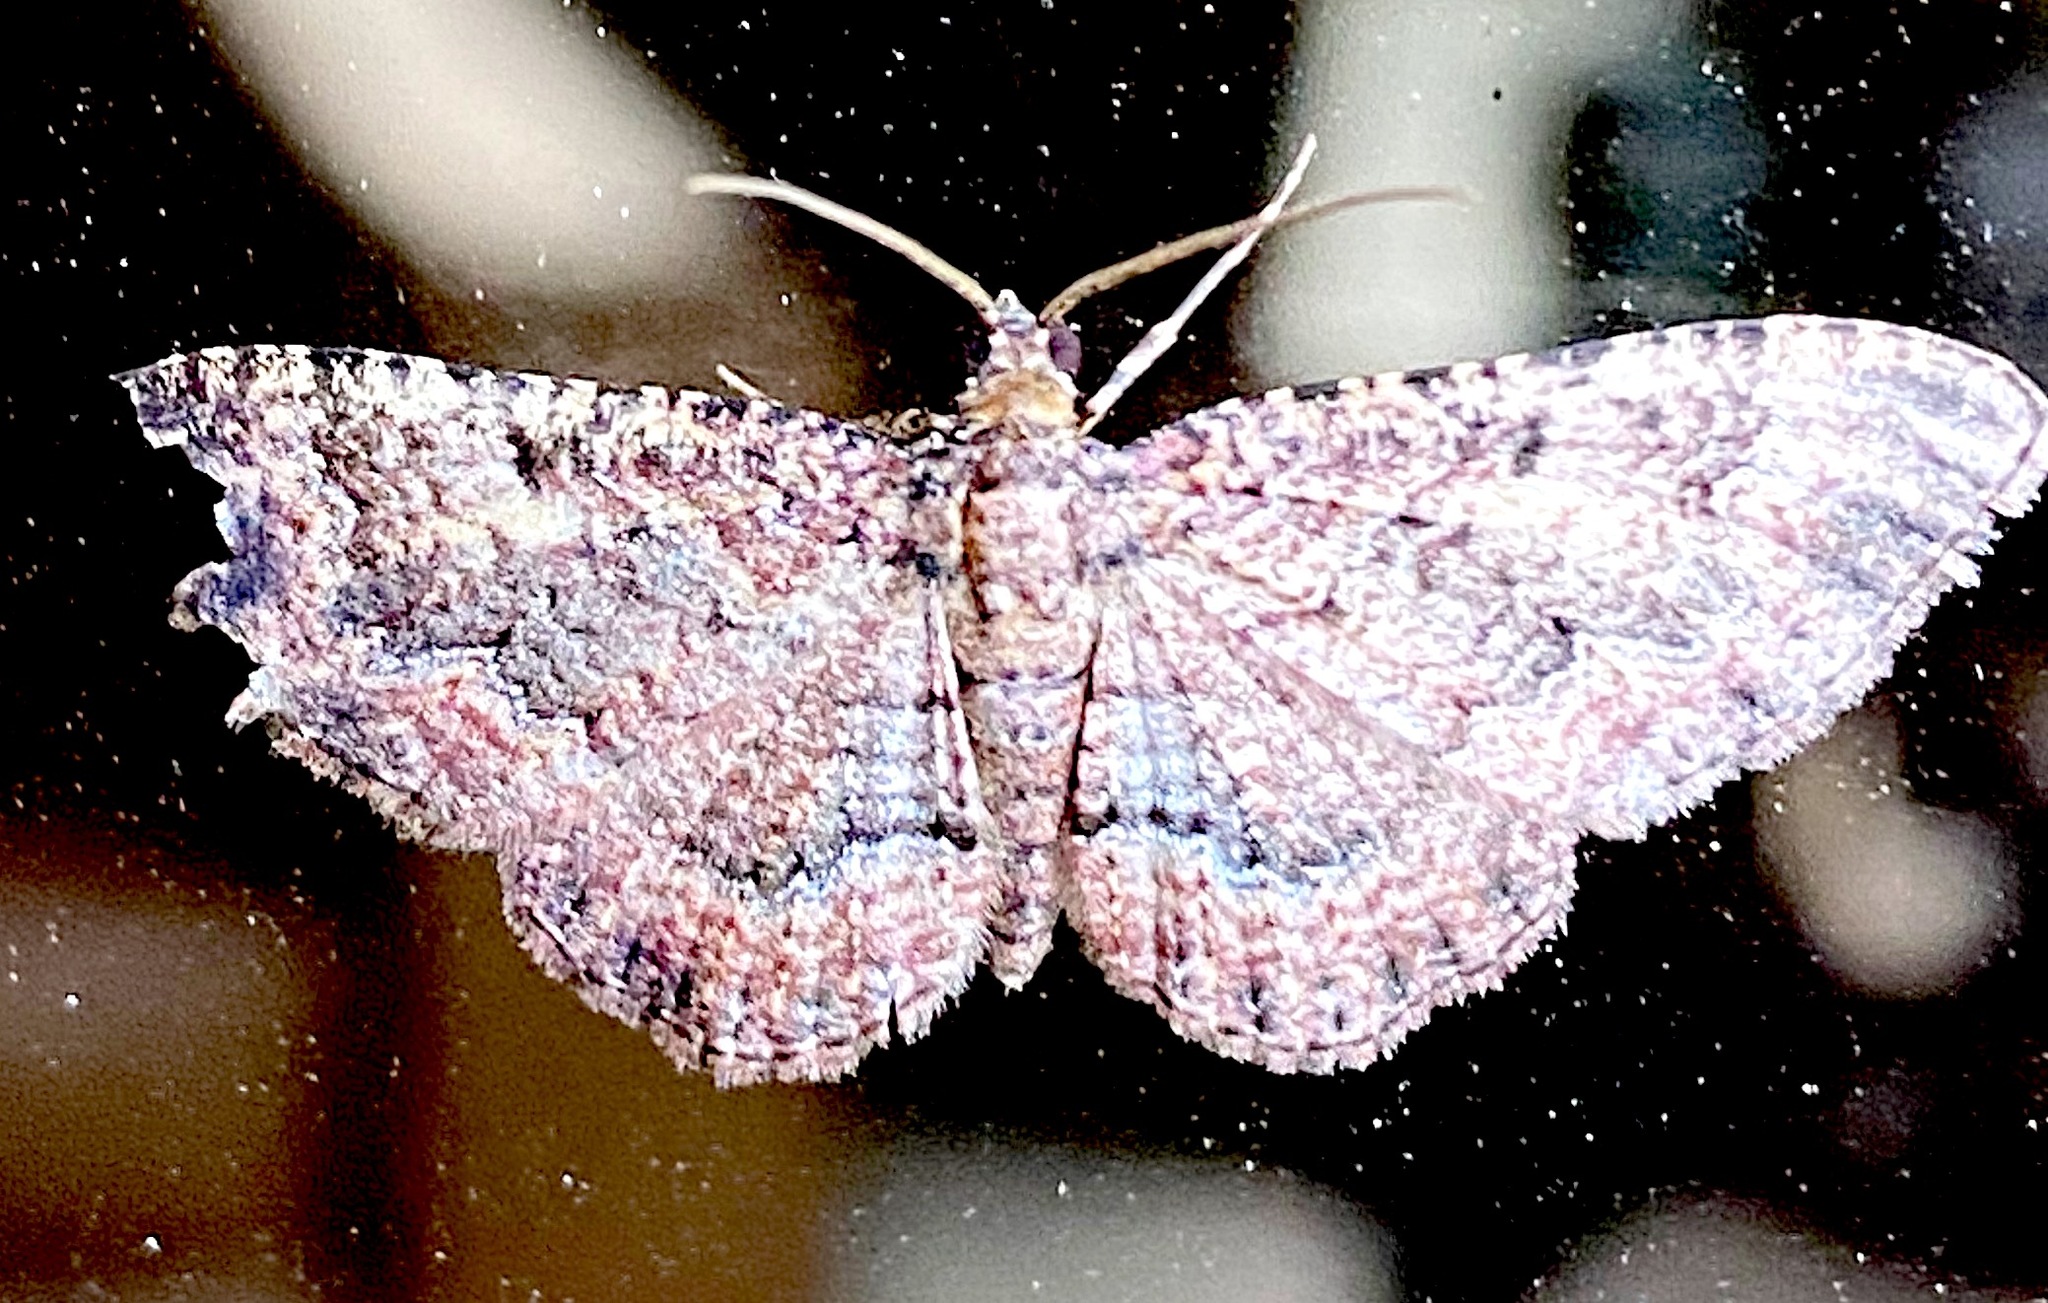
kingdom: Animalia
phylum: Arthropoda
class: Insecta
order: Lepidoptera
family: Geometridae
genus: Disclisioprocta
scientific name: Disclisioprocta stellata
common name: Somber carpet
